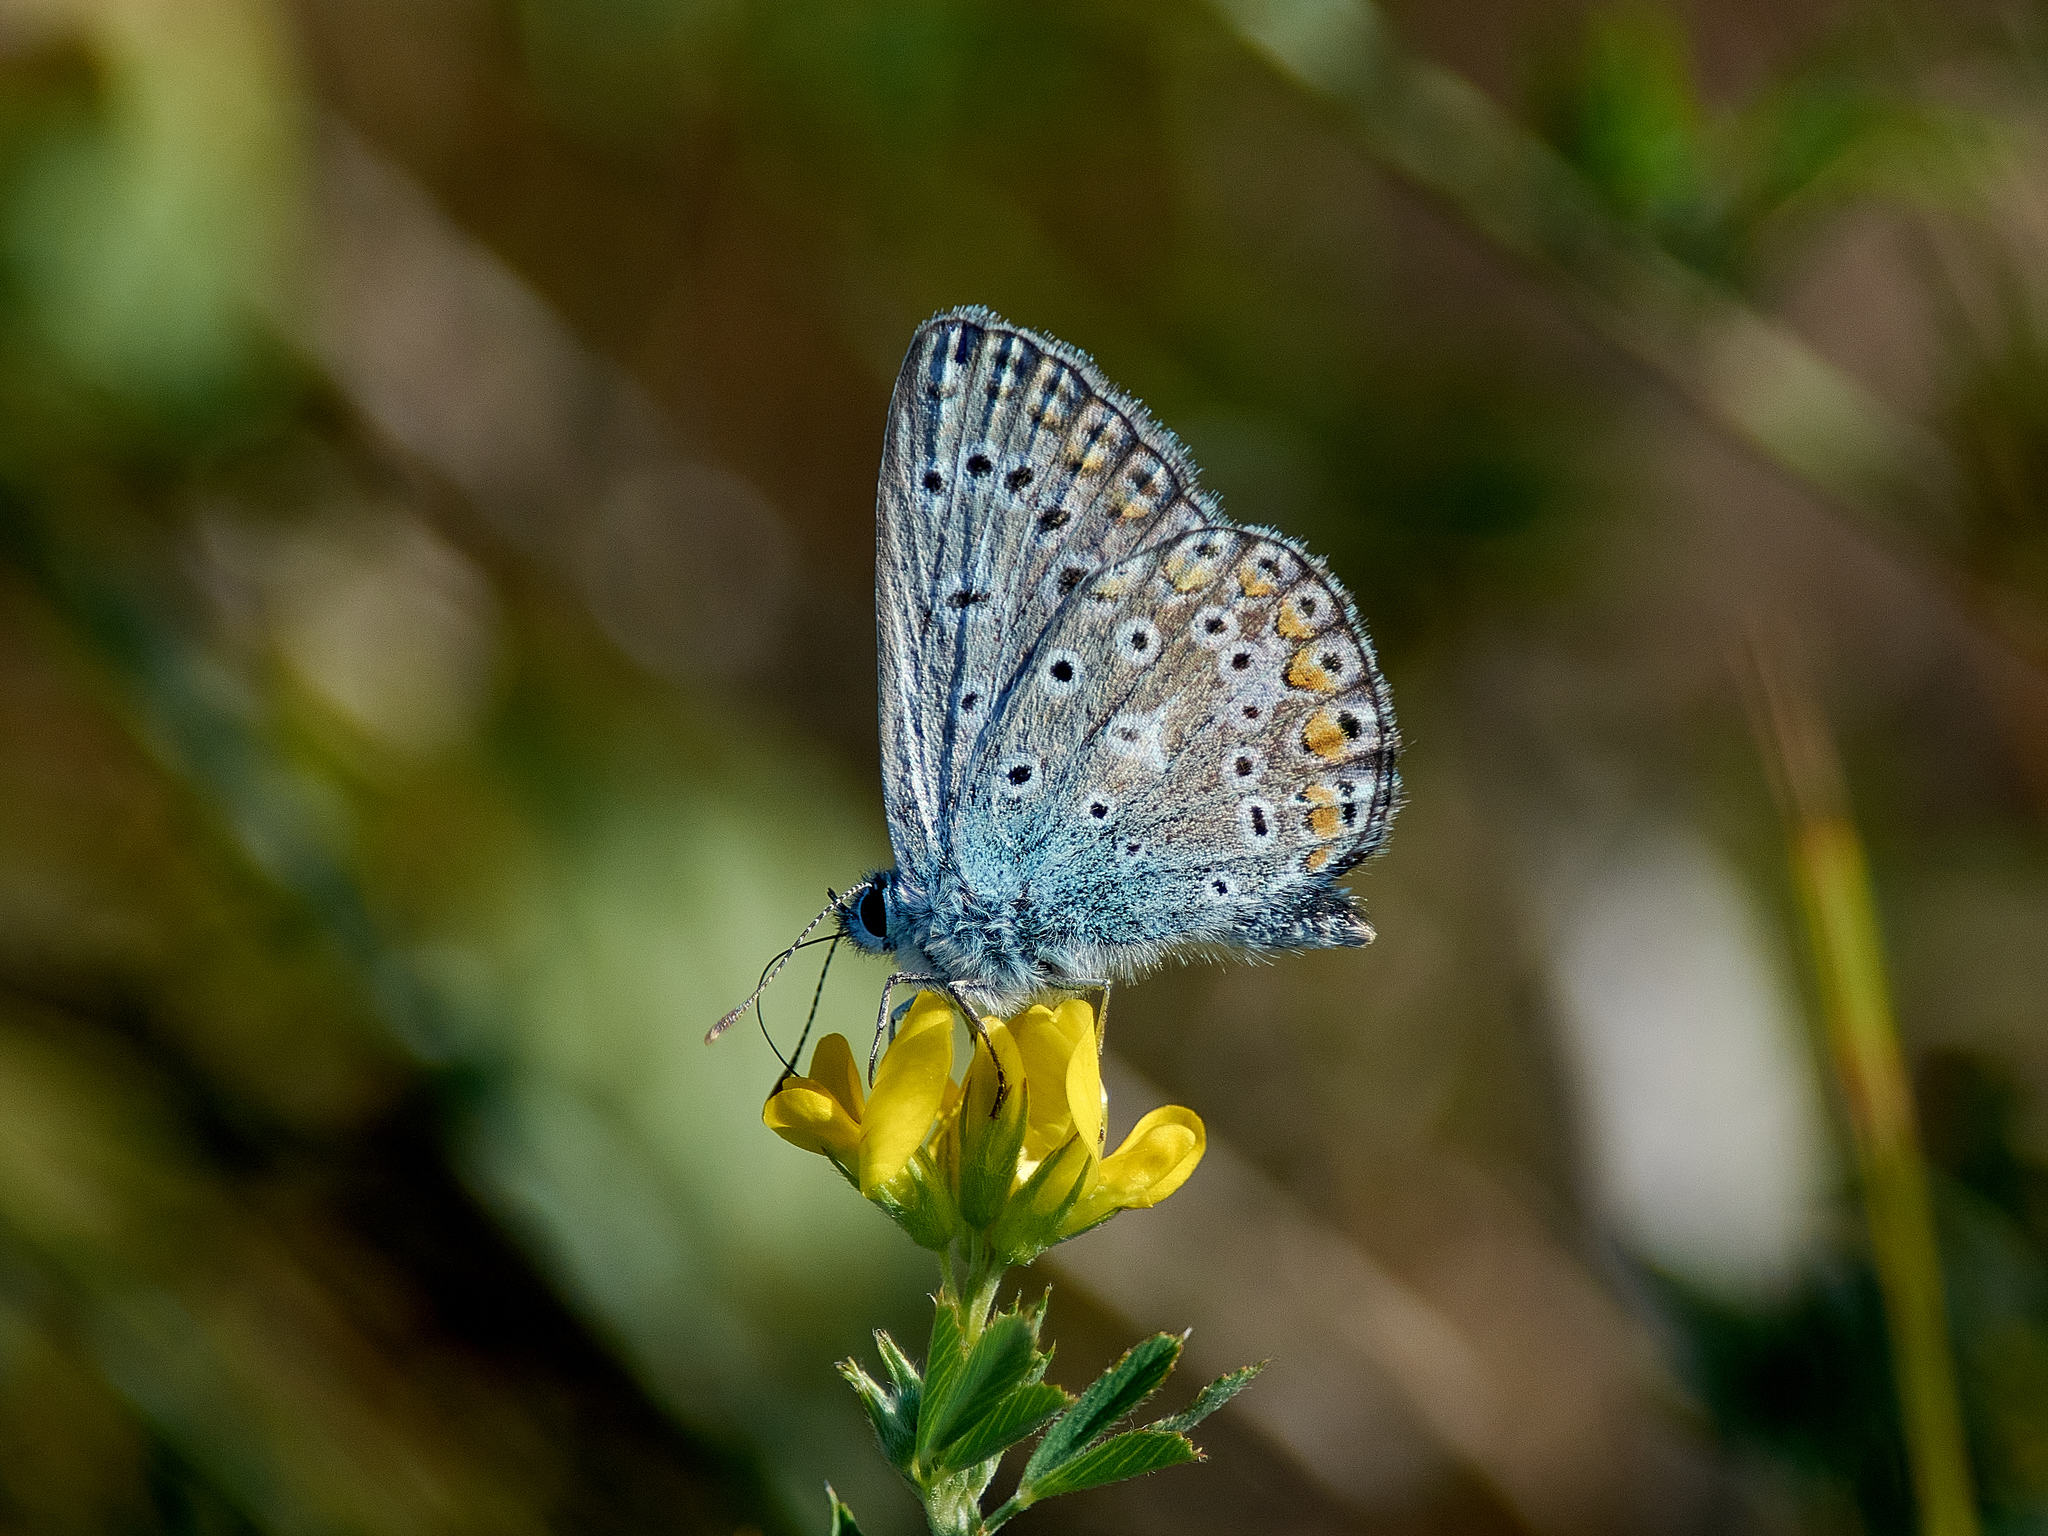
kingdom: Animalia
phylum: Arthropoda
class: Insecta
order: Lepidoptera
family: Lycaenidae
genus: Polyommatus
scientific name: Polyommatus icarus
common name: Common blue
